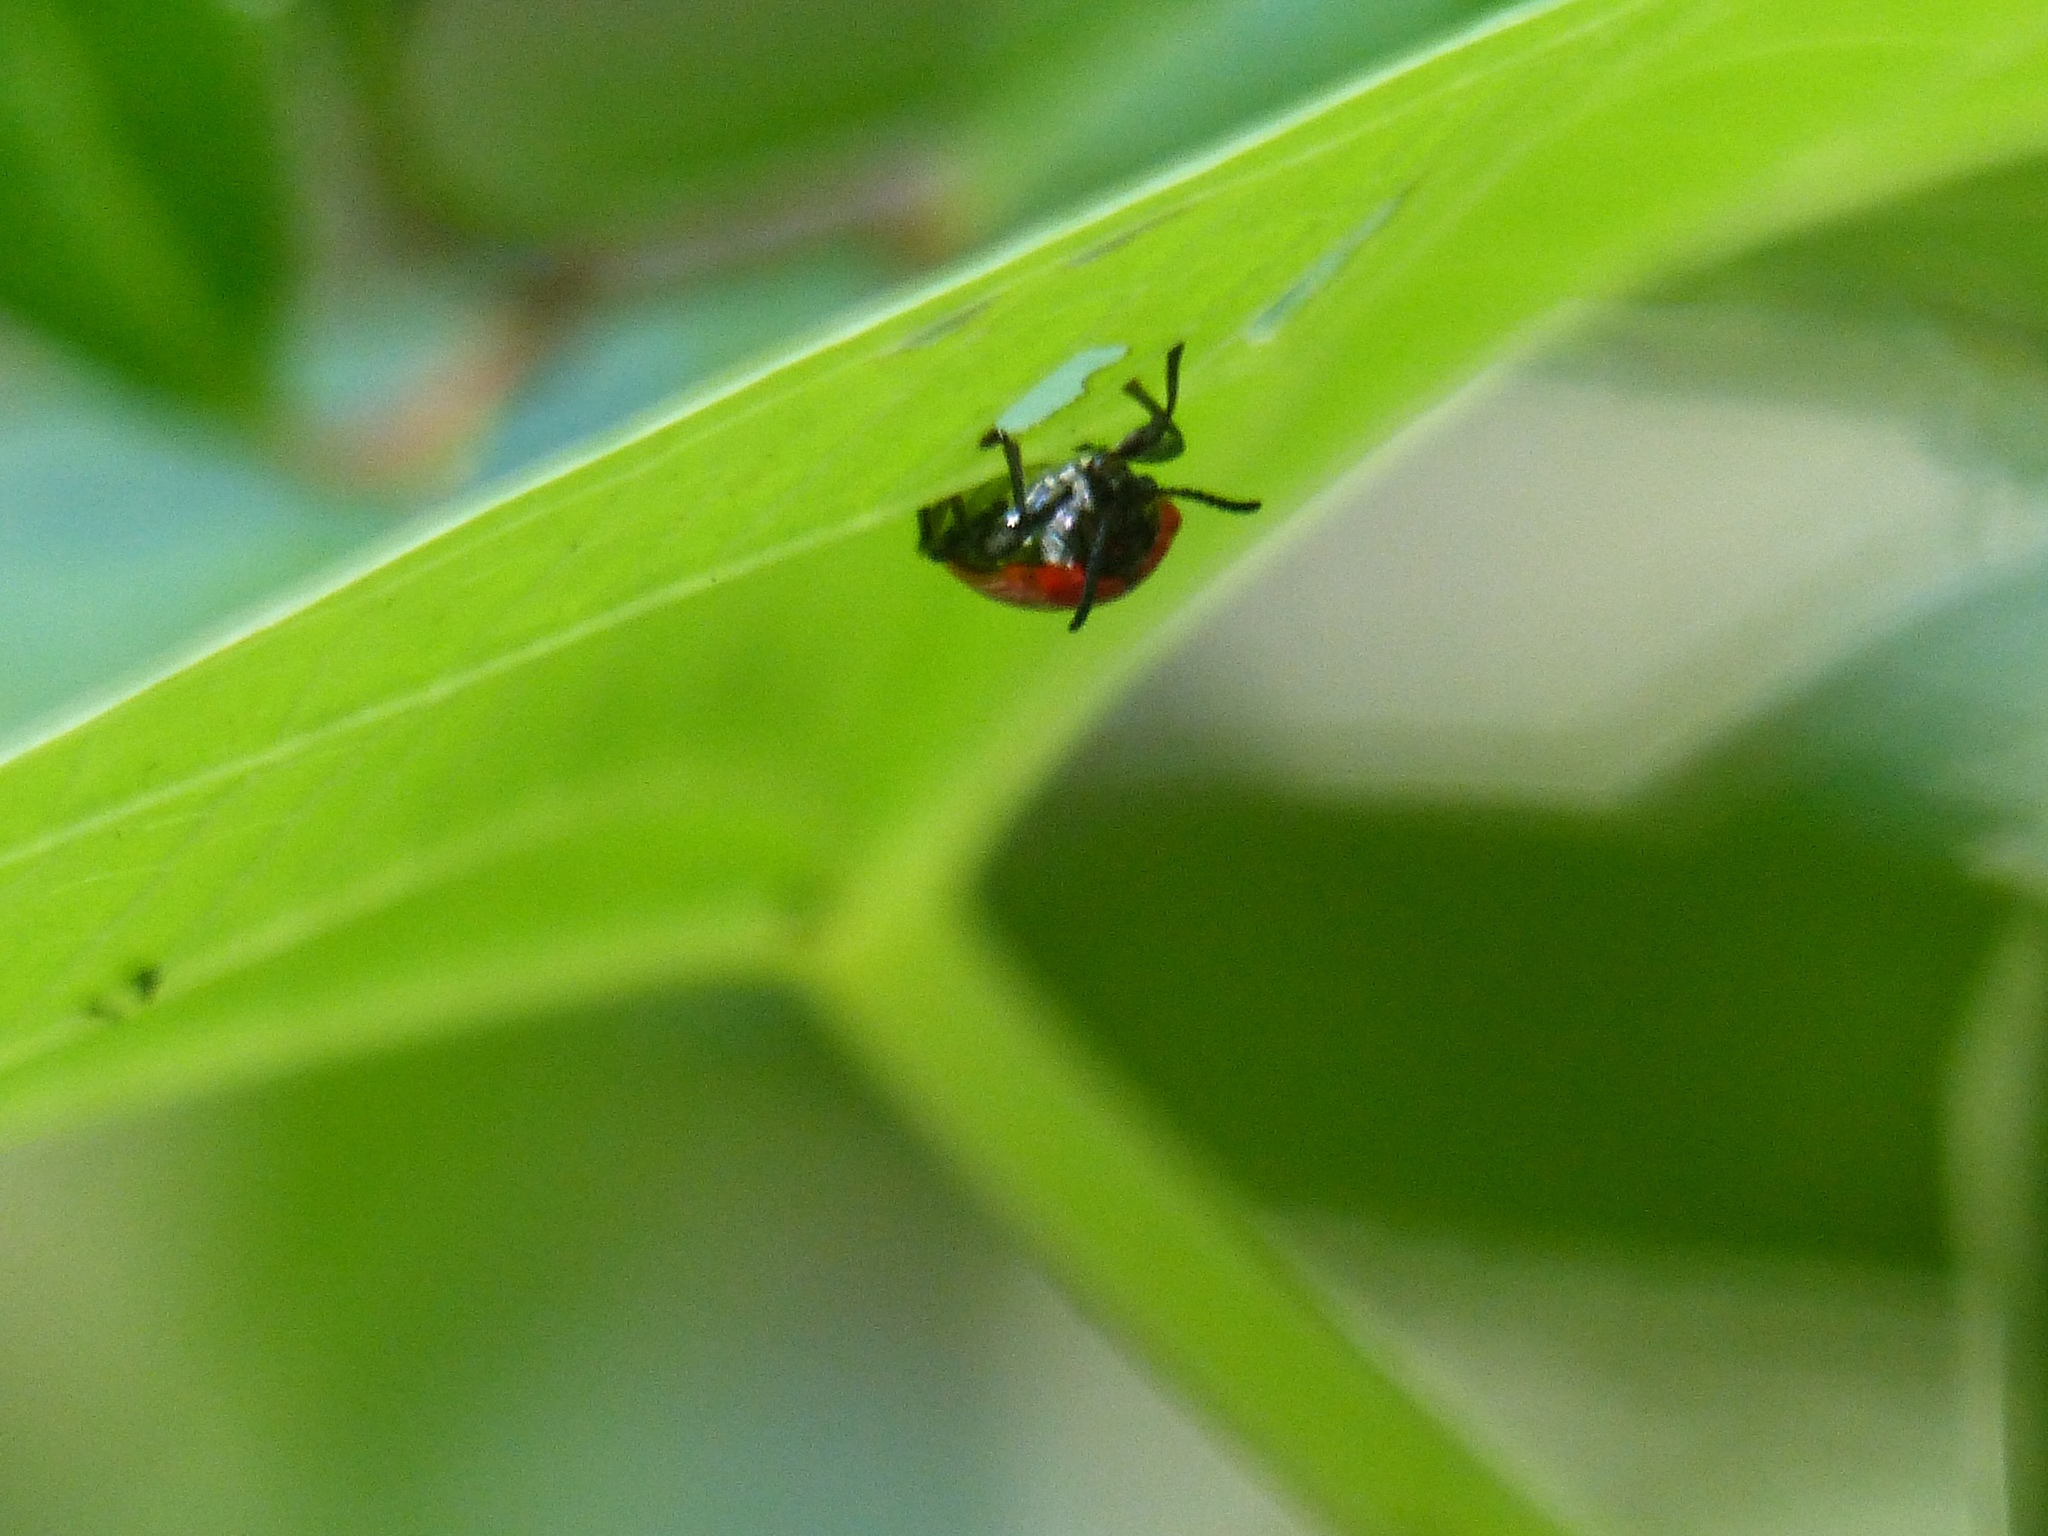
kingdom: Animalia
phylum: Arthropoda
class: Insecta
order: Coleoptera
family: Chrysomelidae
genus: Lilioceris
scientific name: Lilioceris cheni
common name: Leaf beetle
